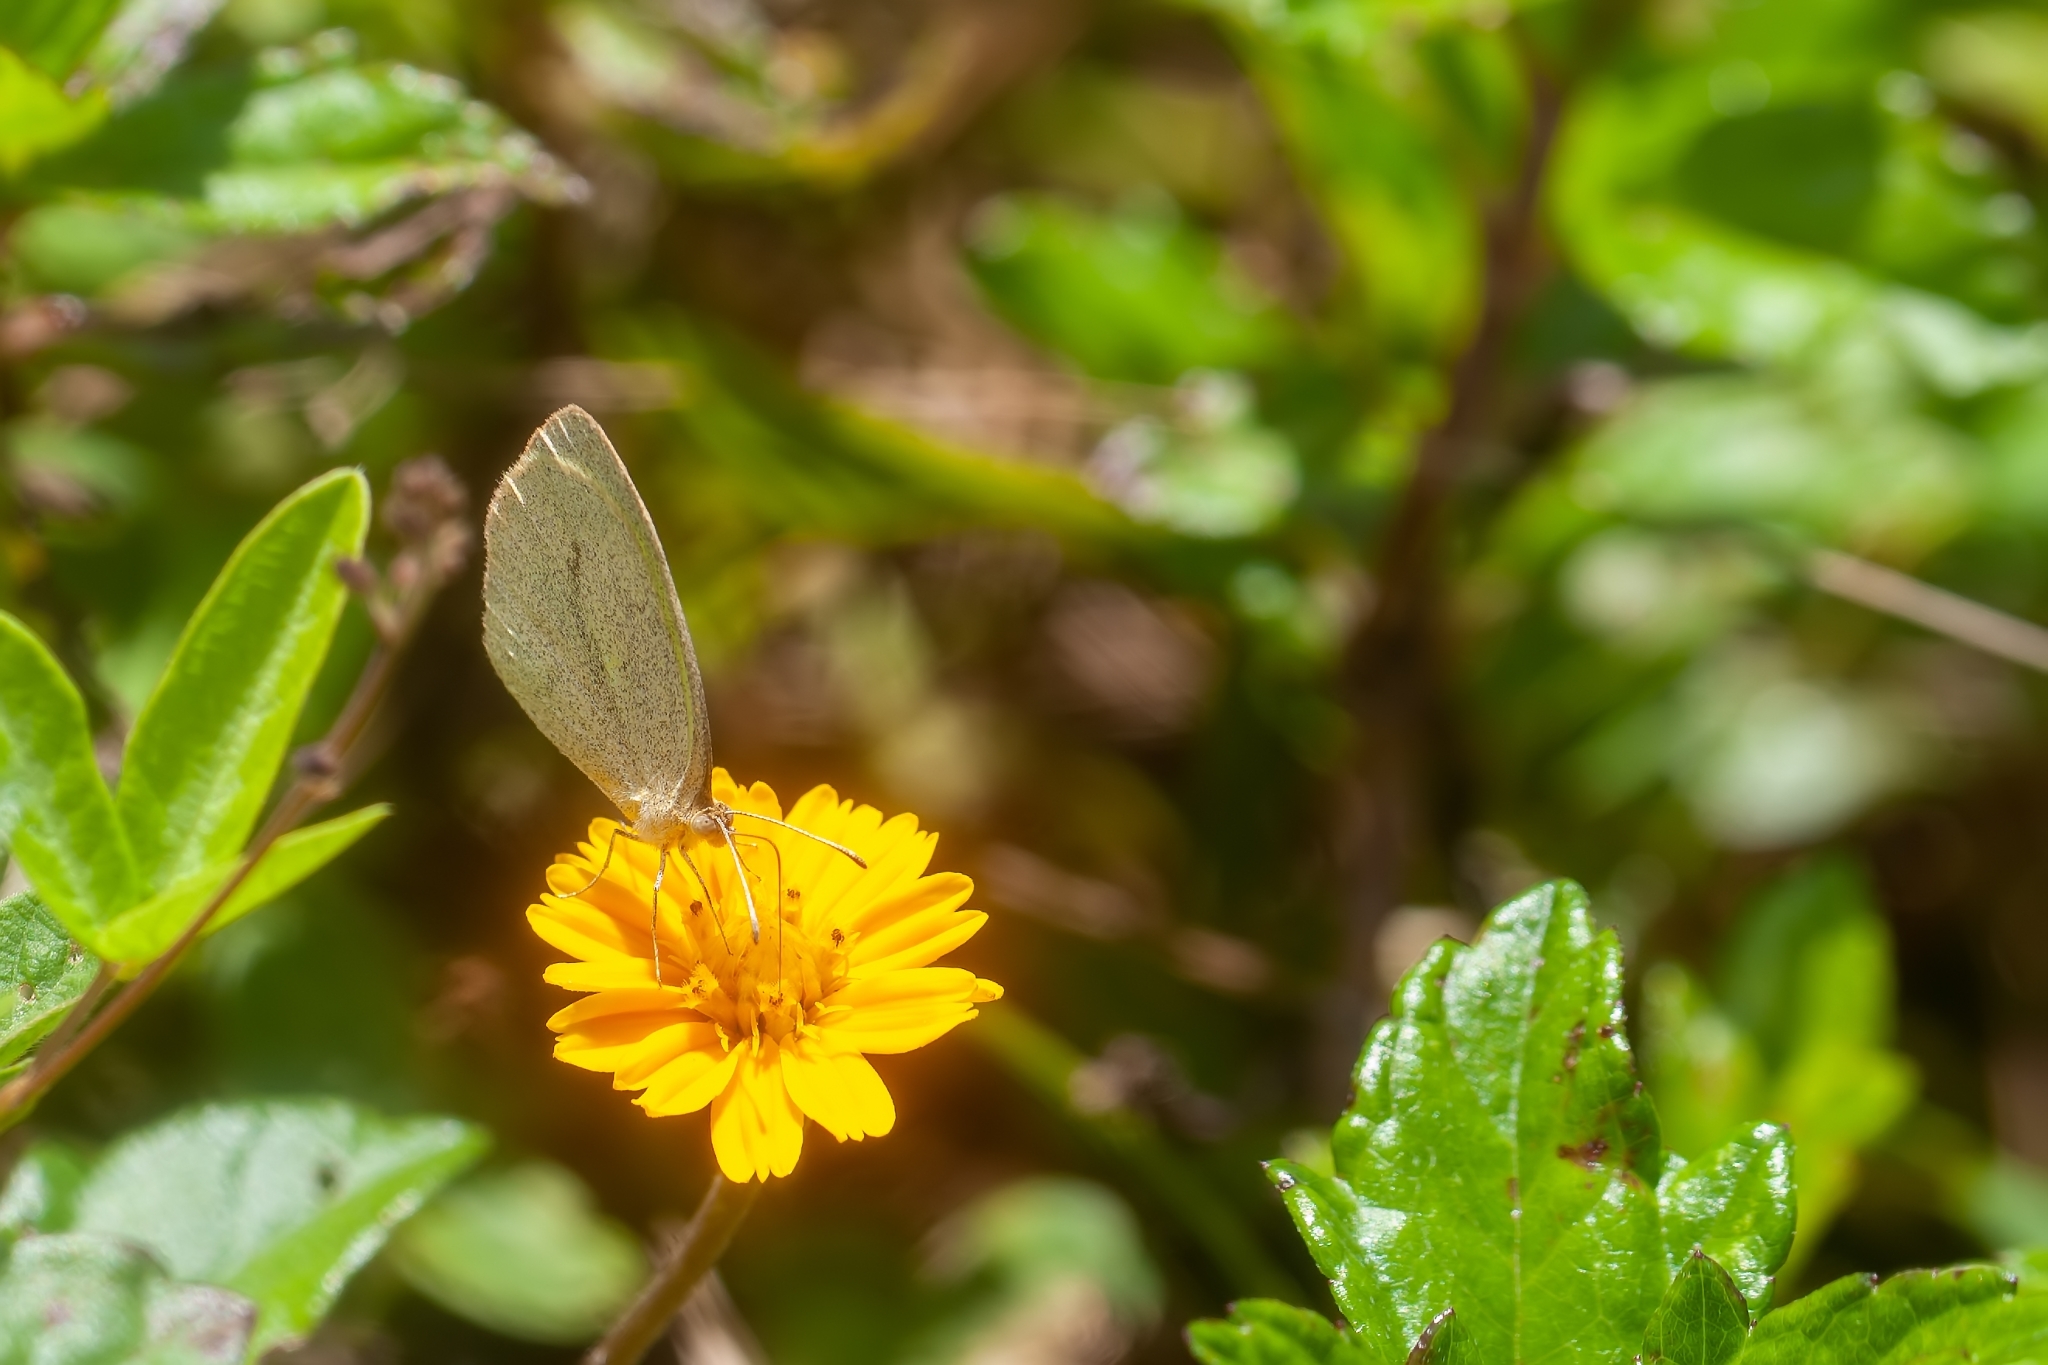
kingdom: Animalia
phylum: Arthropoda
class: Insecta
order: Lepidoptera
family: Pieridae
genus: Eurema
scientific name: Eurema daira
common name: Barred sulphur
